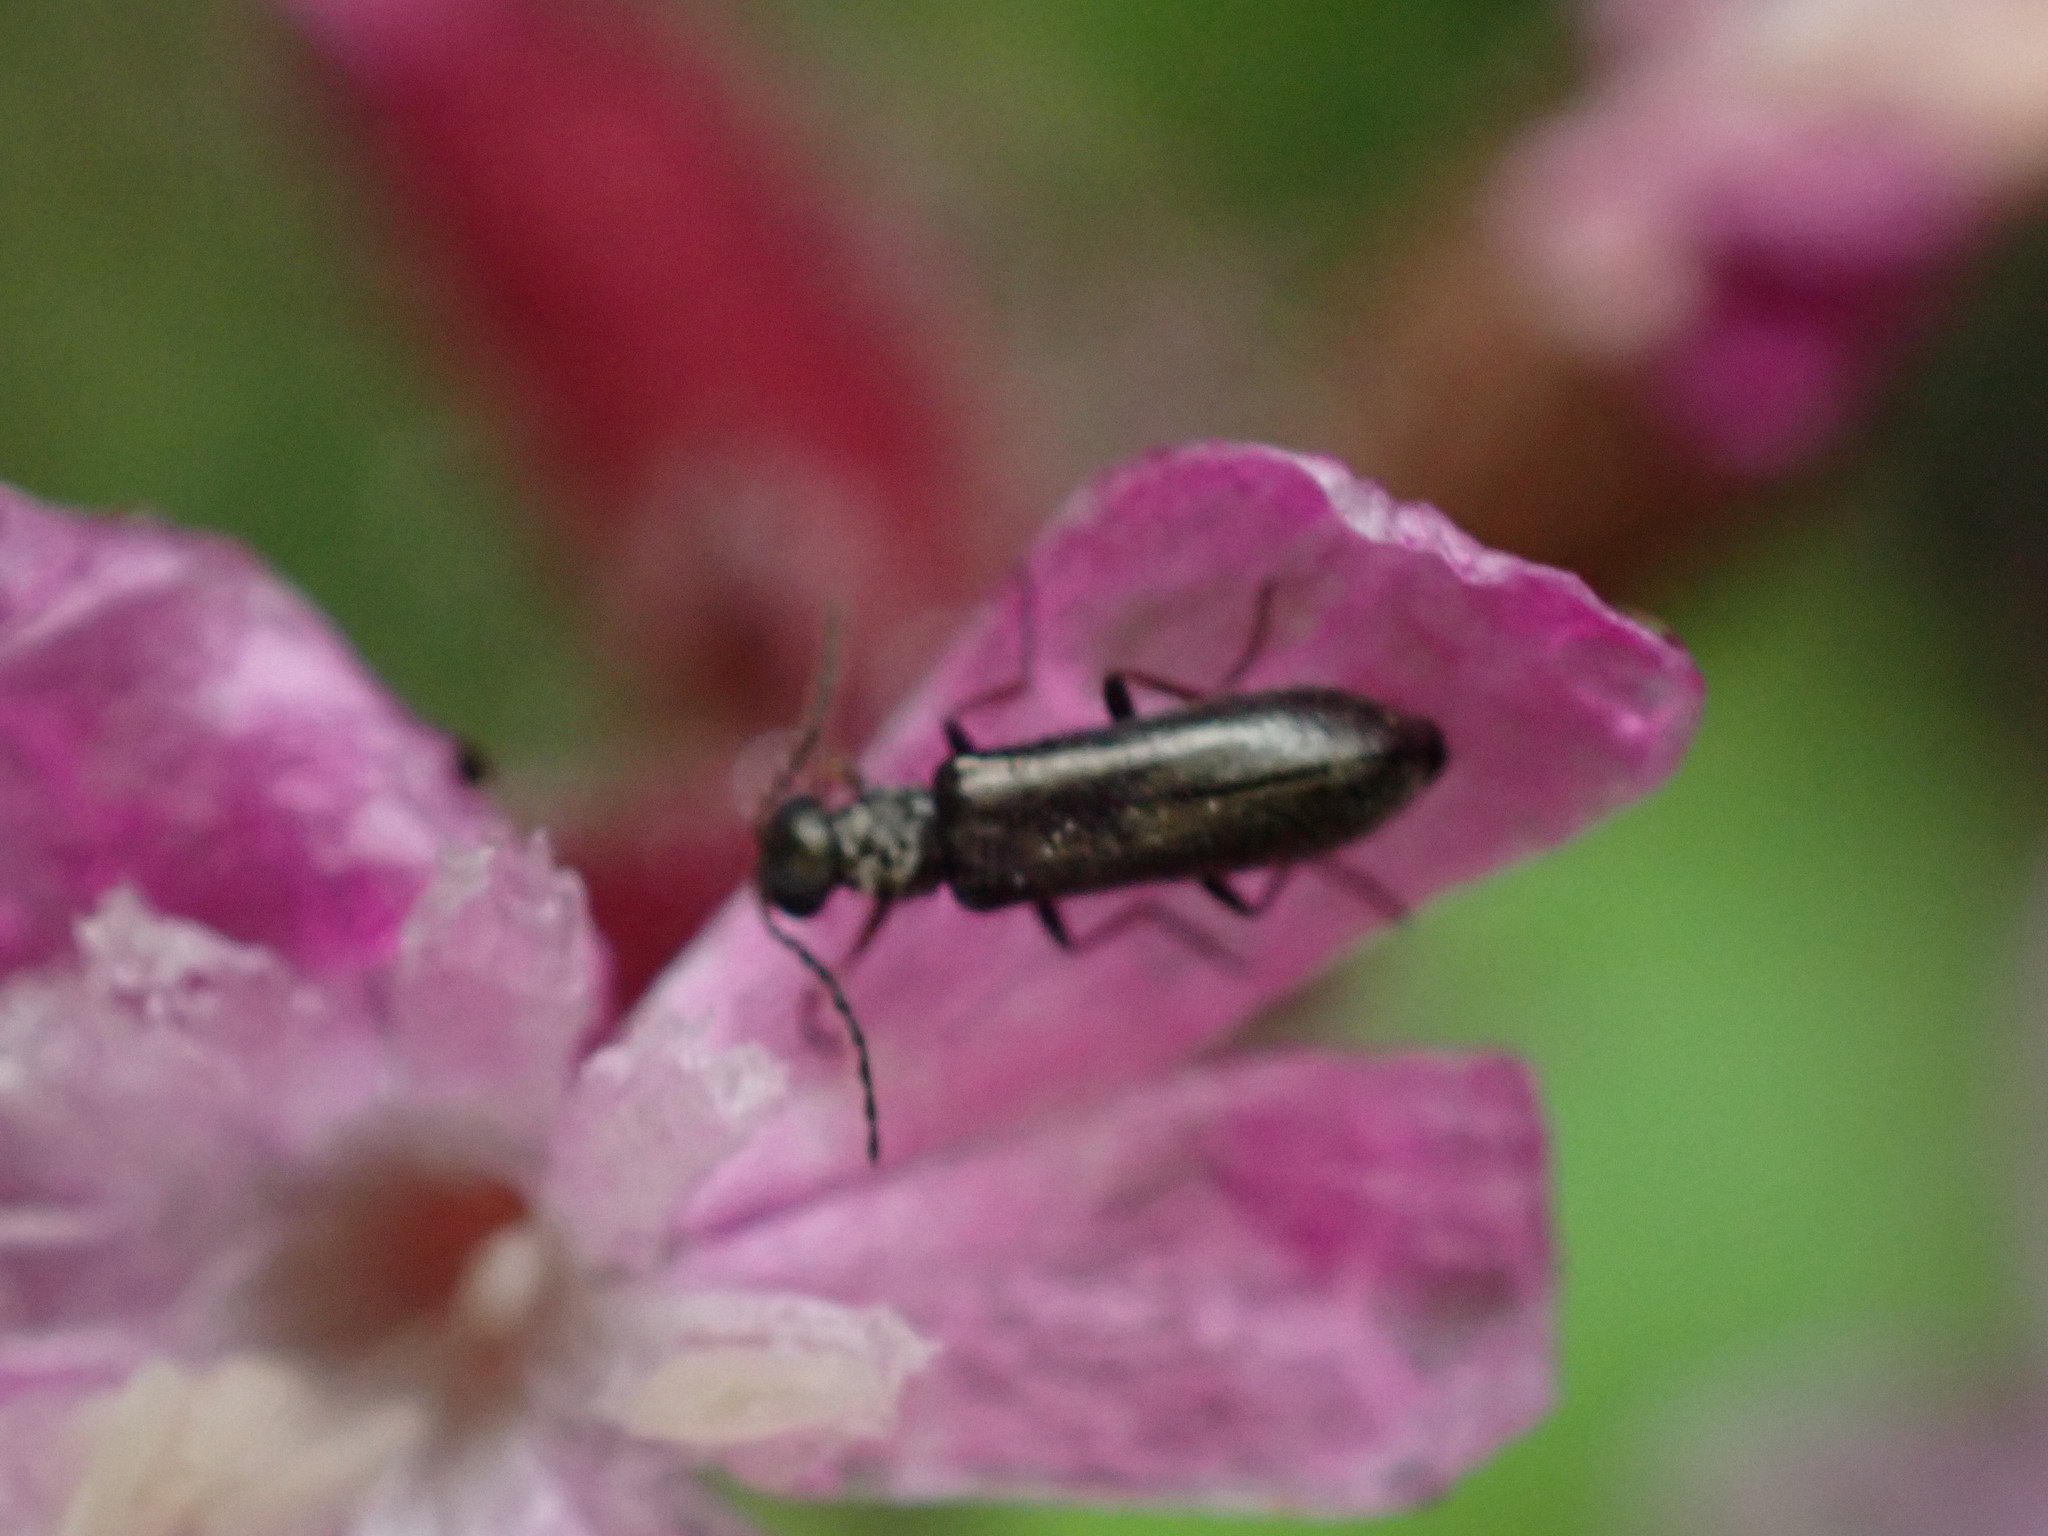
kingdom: Animalia
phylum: Arthropoda
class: Insecta
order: Coleoptera
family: Melyridae
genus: Dasytes
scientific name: Dasytes plumbeus
